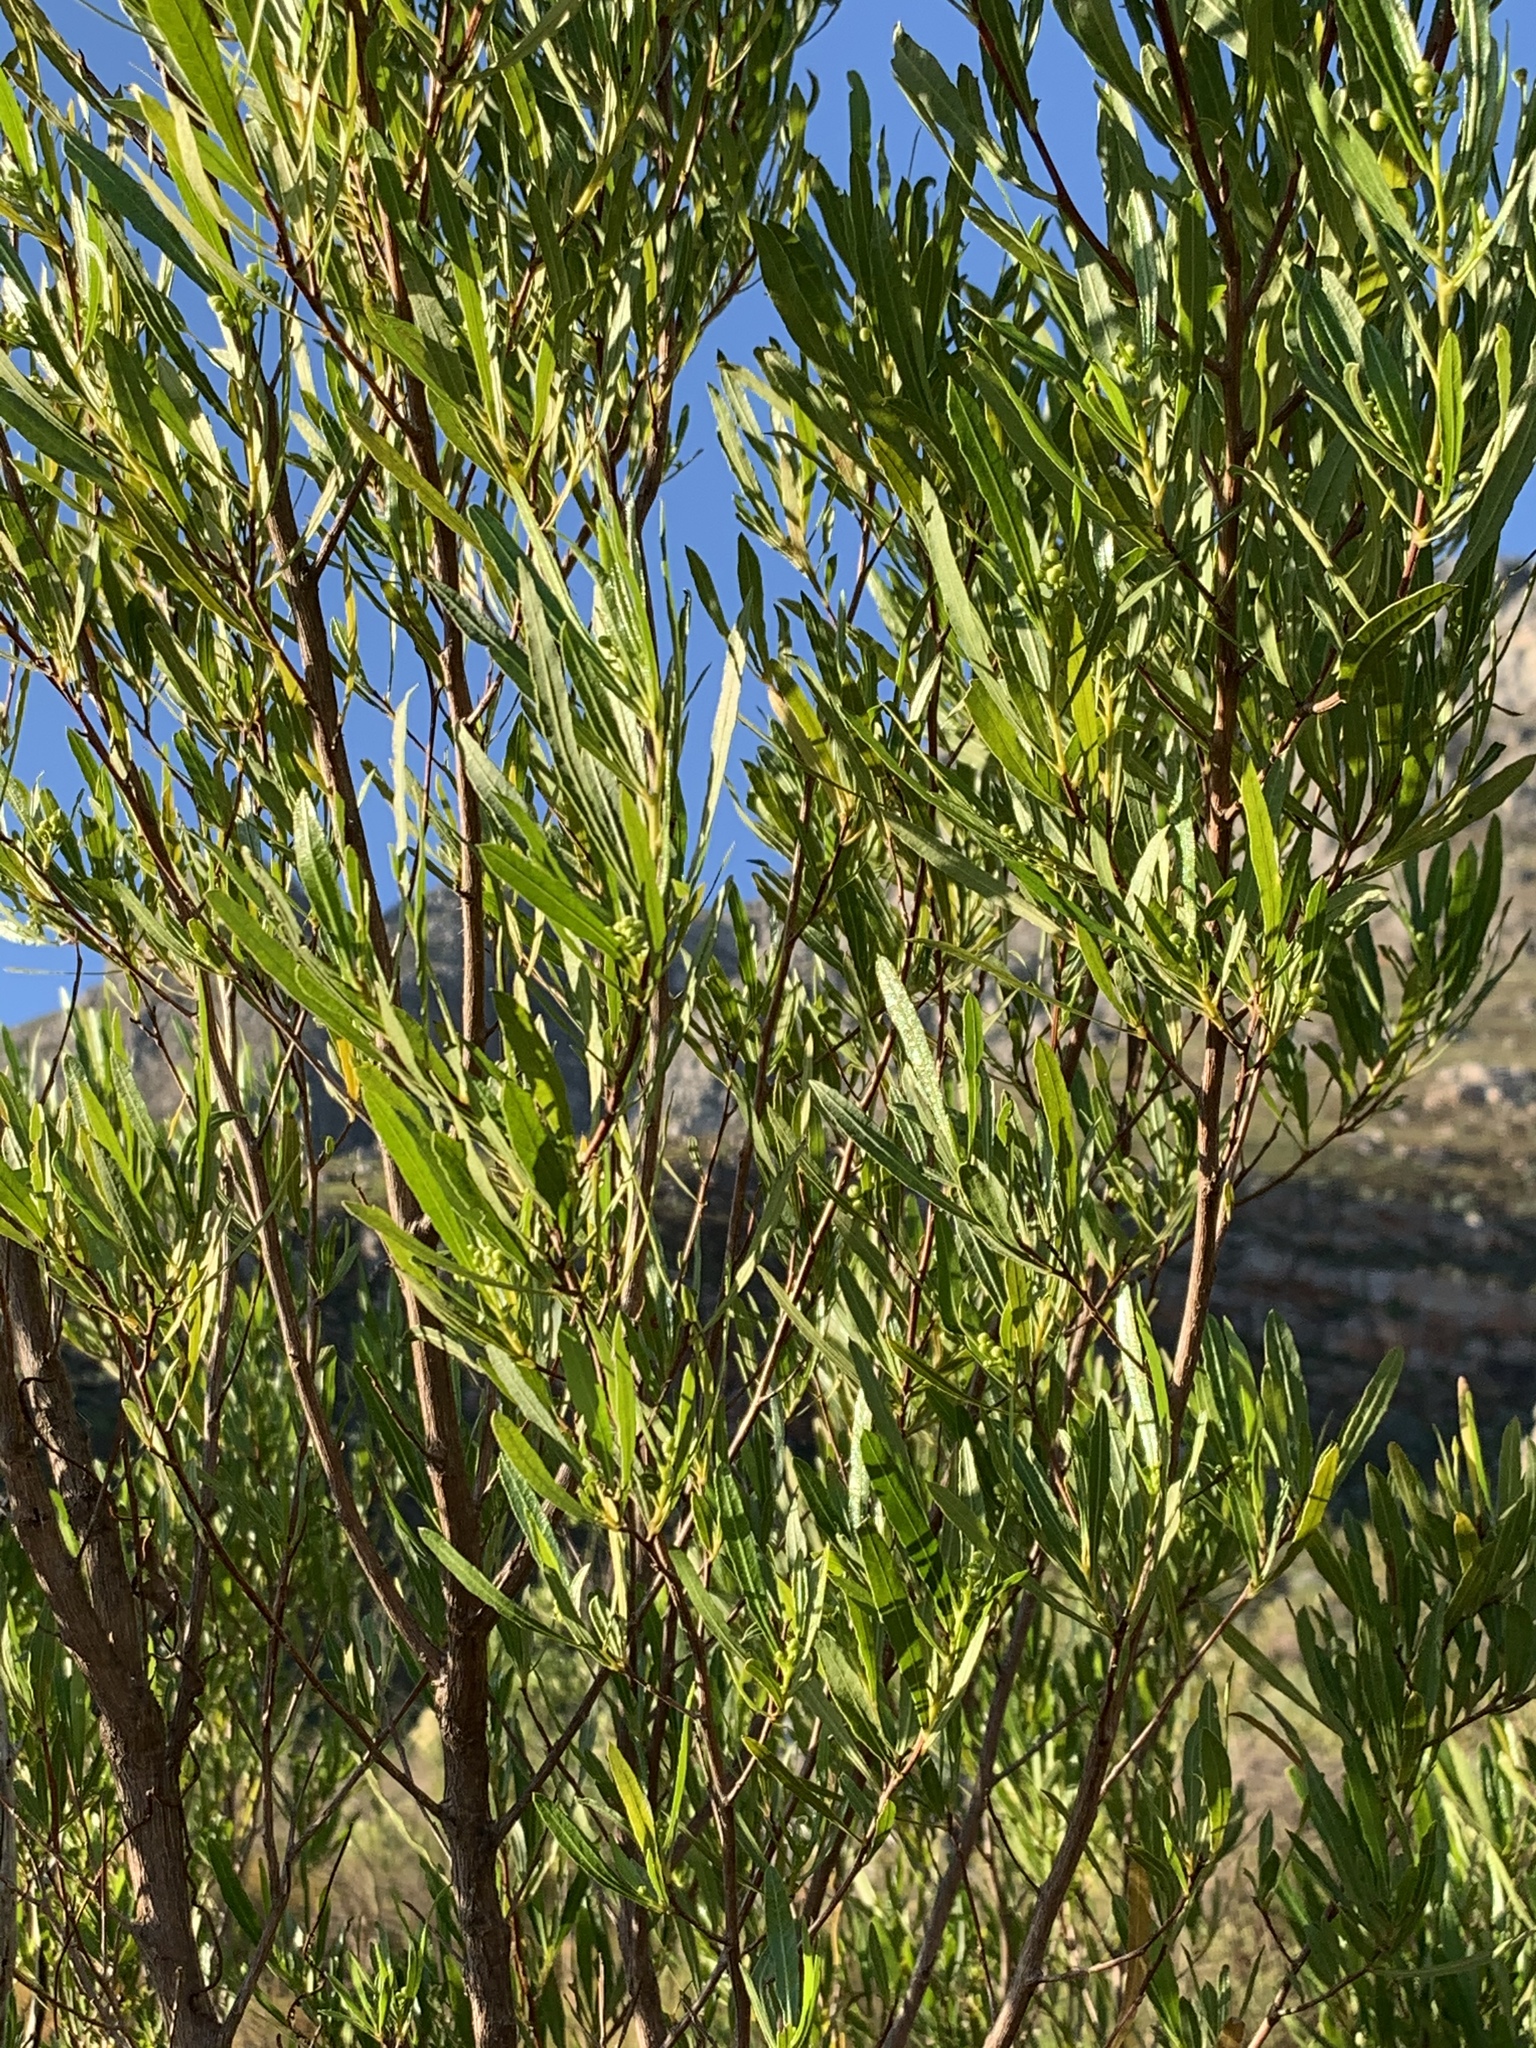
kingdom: Plantae
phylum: Tracheophyta
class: Magnoliopsida
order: Sapindales
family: Sapindaceae
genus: Dodonaea
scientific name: Dodonaea viscosa
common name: Hopbush
